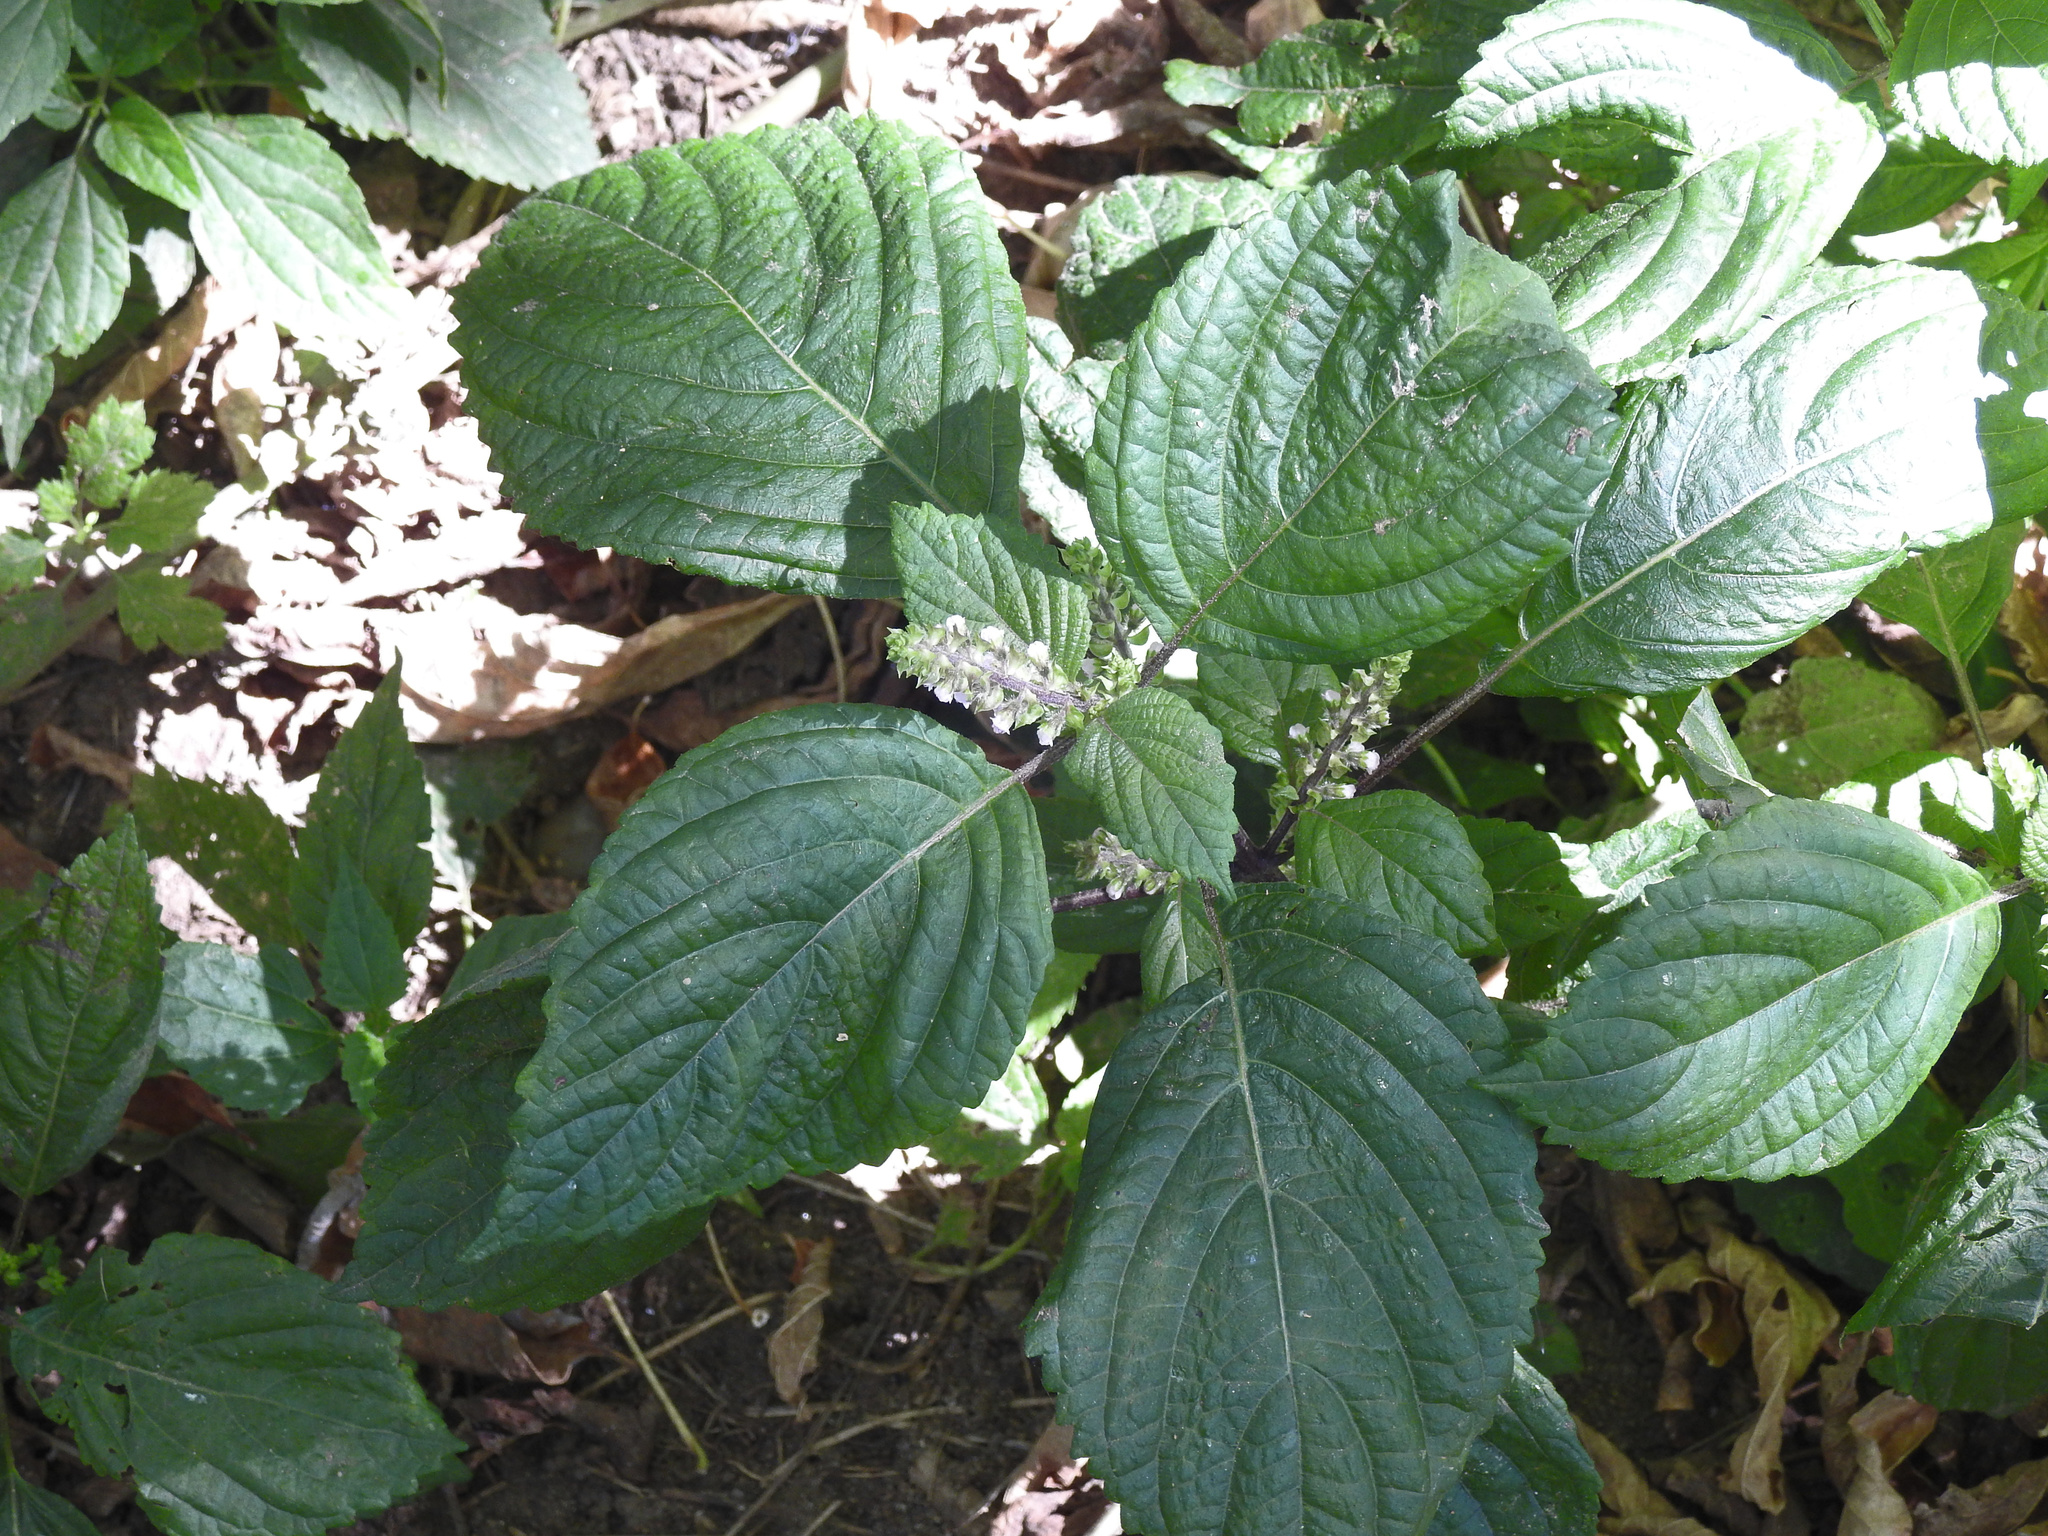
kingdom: Plantae
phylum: Tracheophyta
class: Magnoliopsida
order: Lamiales
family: Lamiaceae
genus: Perilla
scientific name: Perilla frutescens
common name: Perilla
